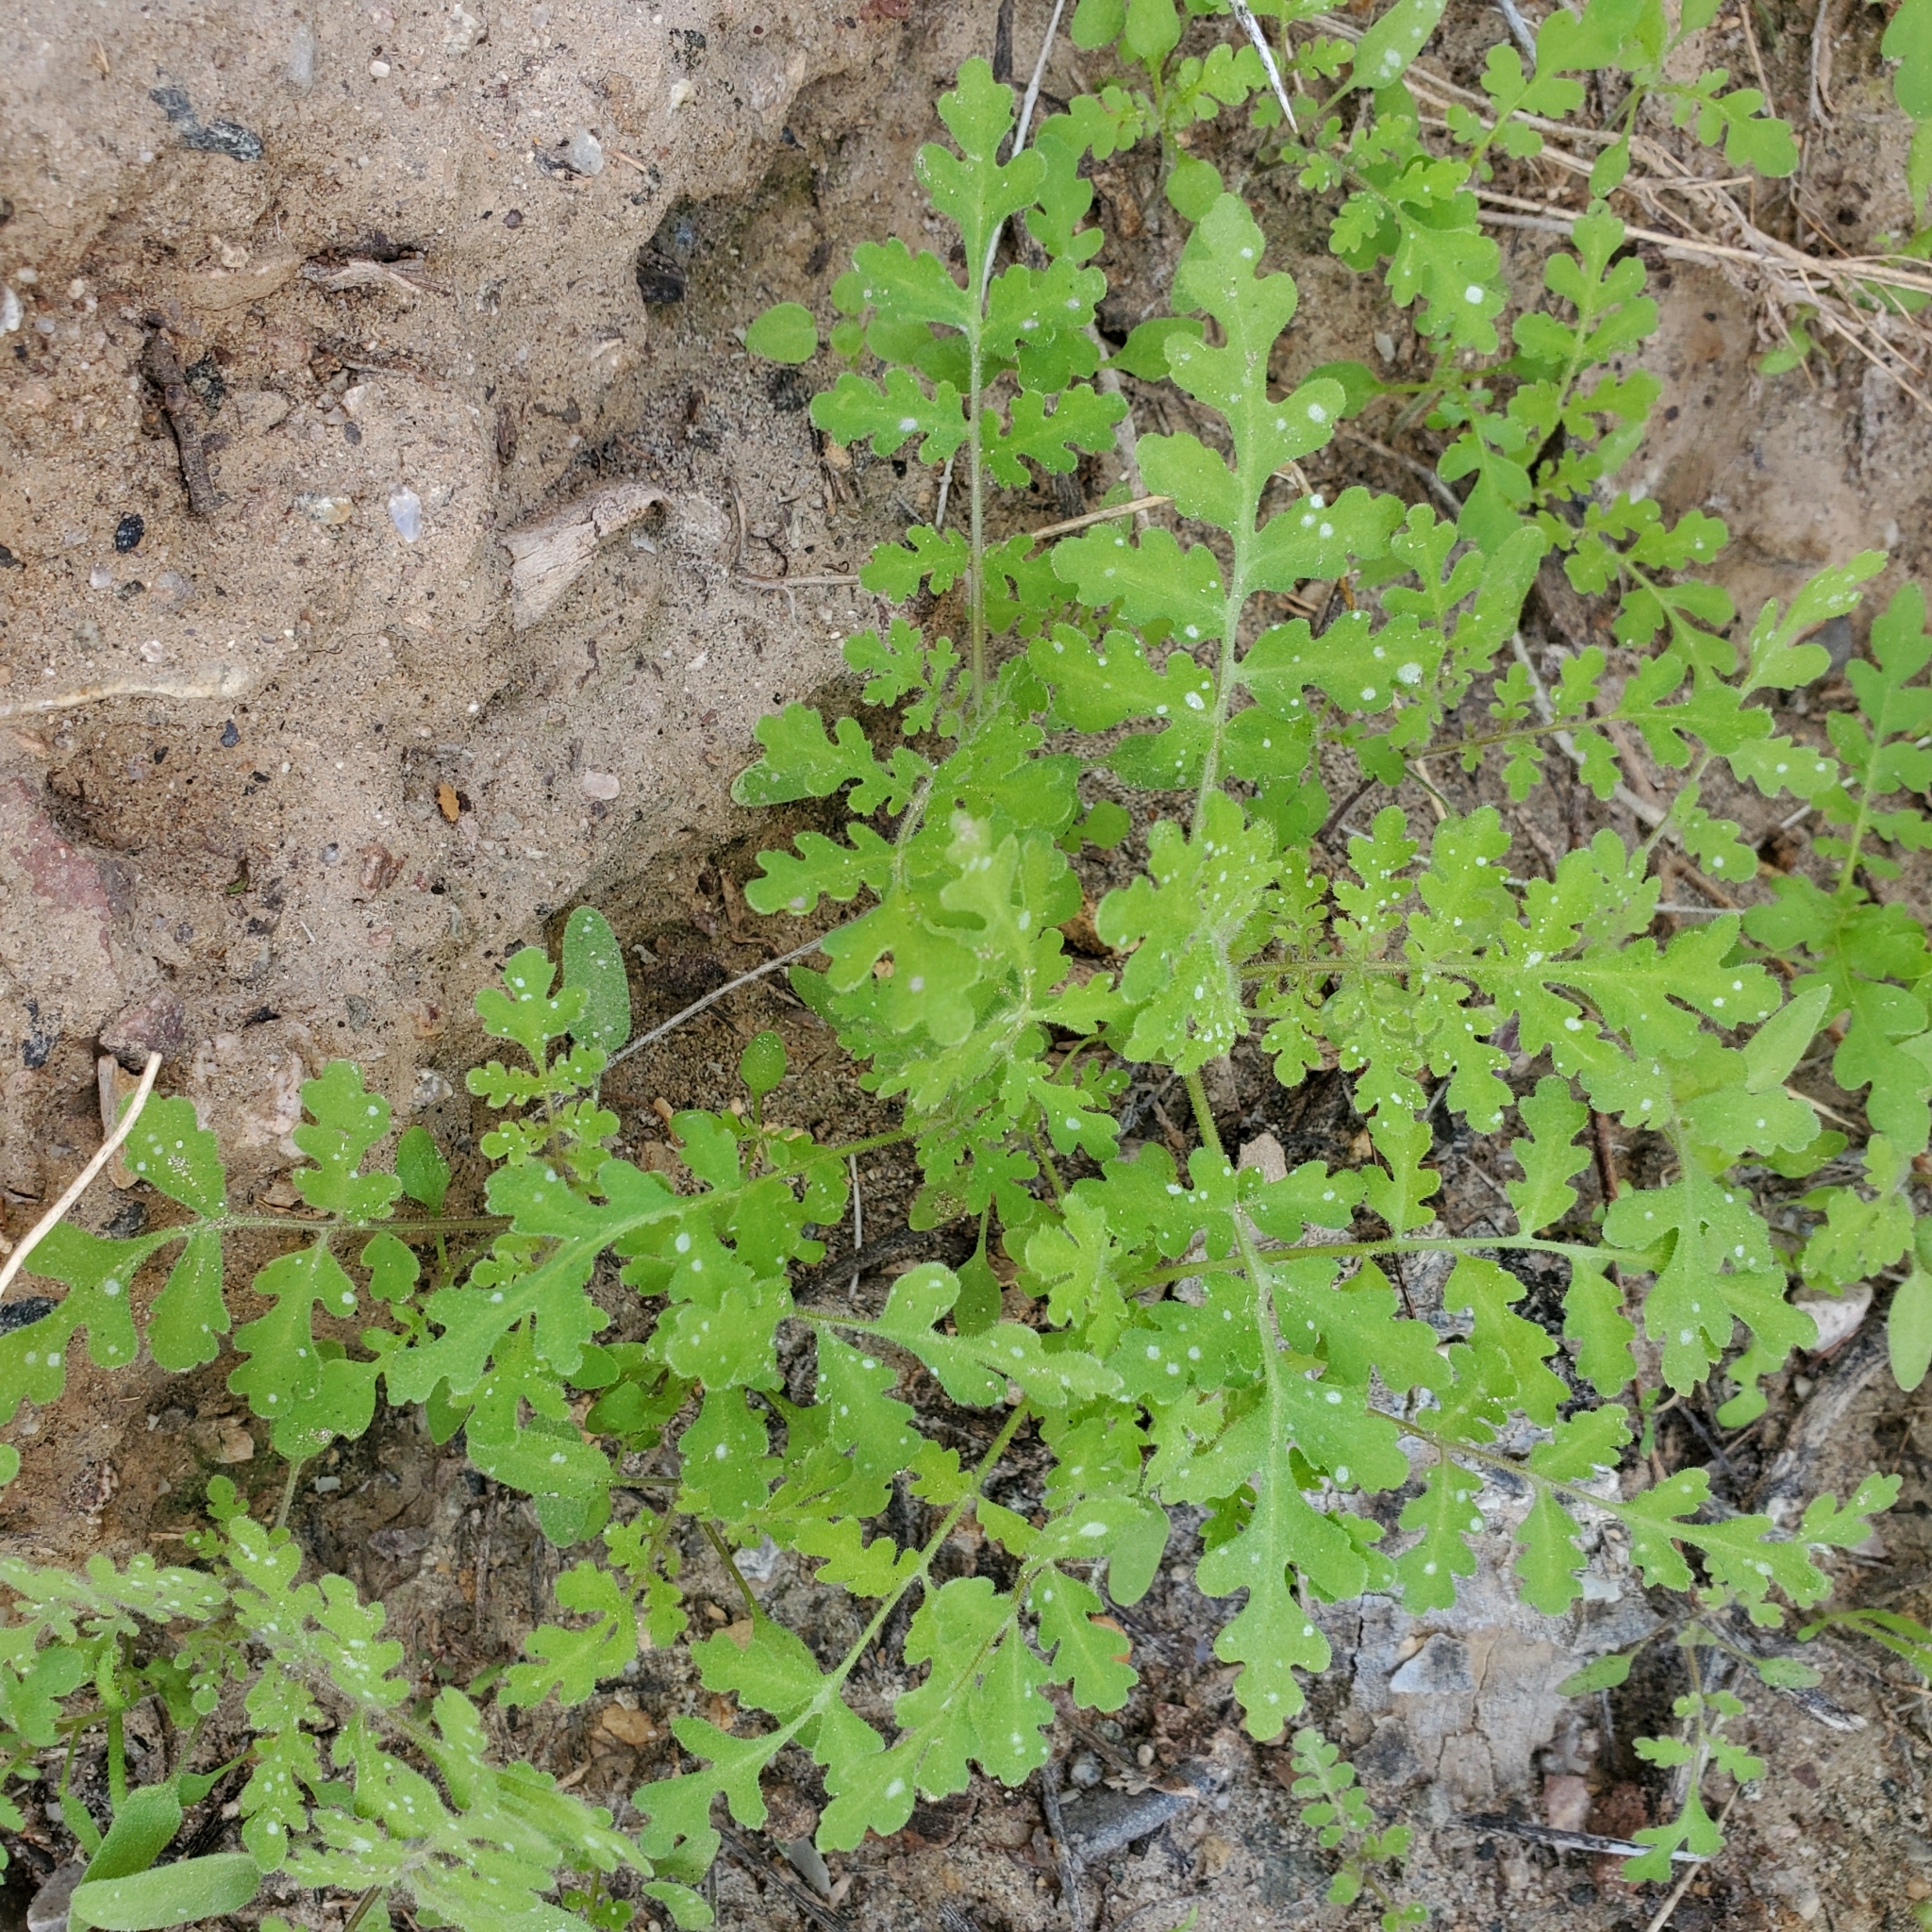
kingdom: Plantae
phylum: Tracheophyta
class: Magnoliopsida
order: Boraginales
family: Hydrophyllaceae
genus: Eucrypta
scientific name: Eucrypta chrysanthemifolia
